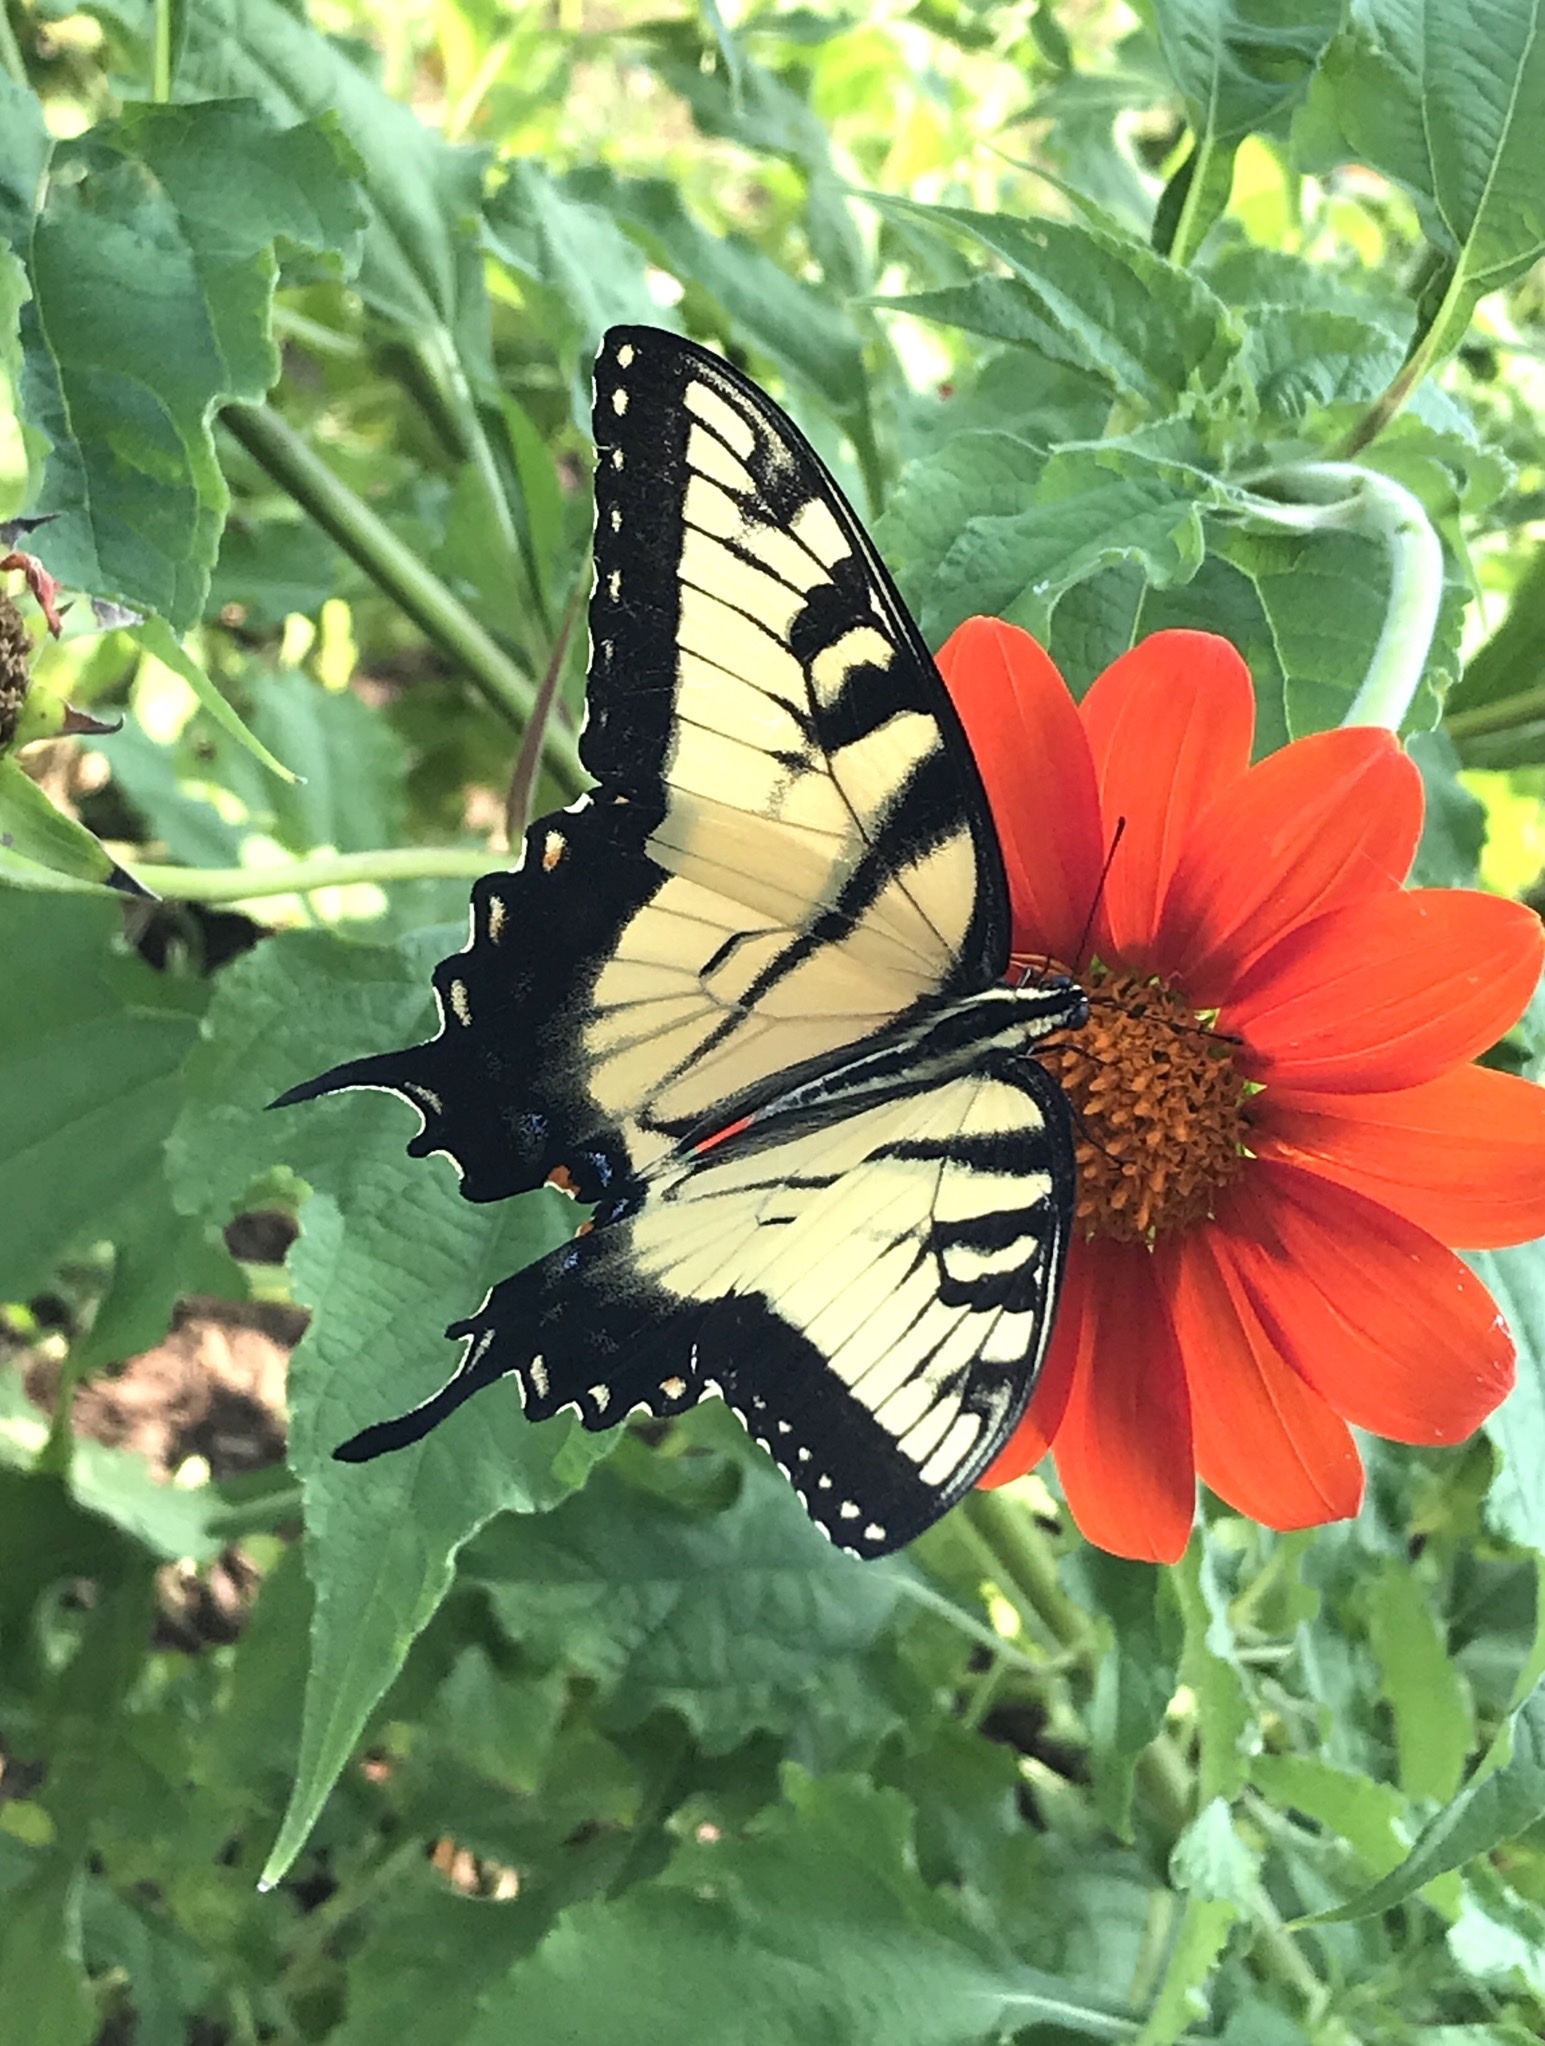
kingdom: Animalia
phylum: Arthropoda
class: Insecta
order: Lepidoptera
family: Papilionidae
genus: Papilio
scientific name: Papilio glaucus
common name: Tiger swallowtail
